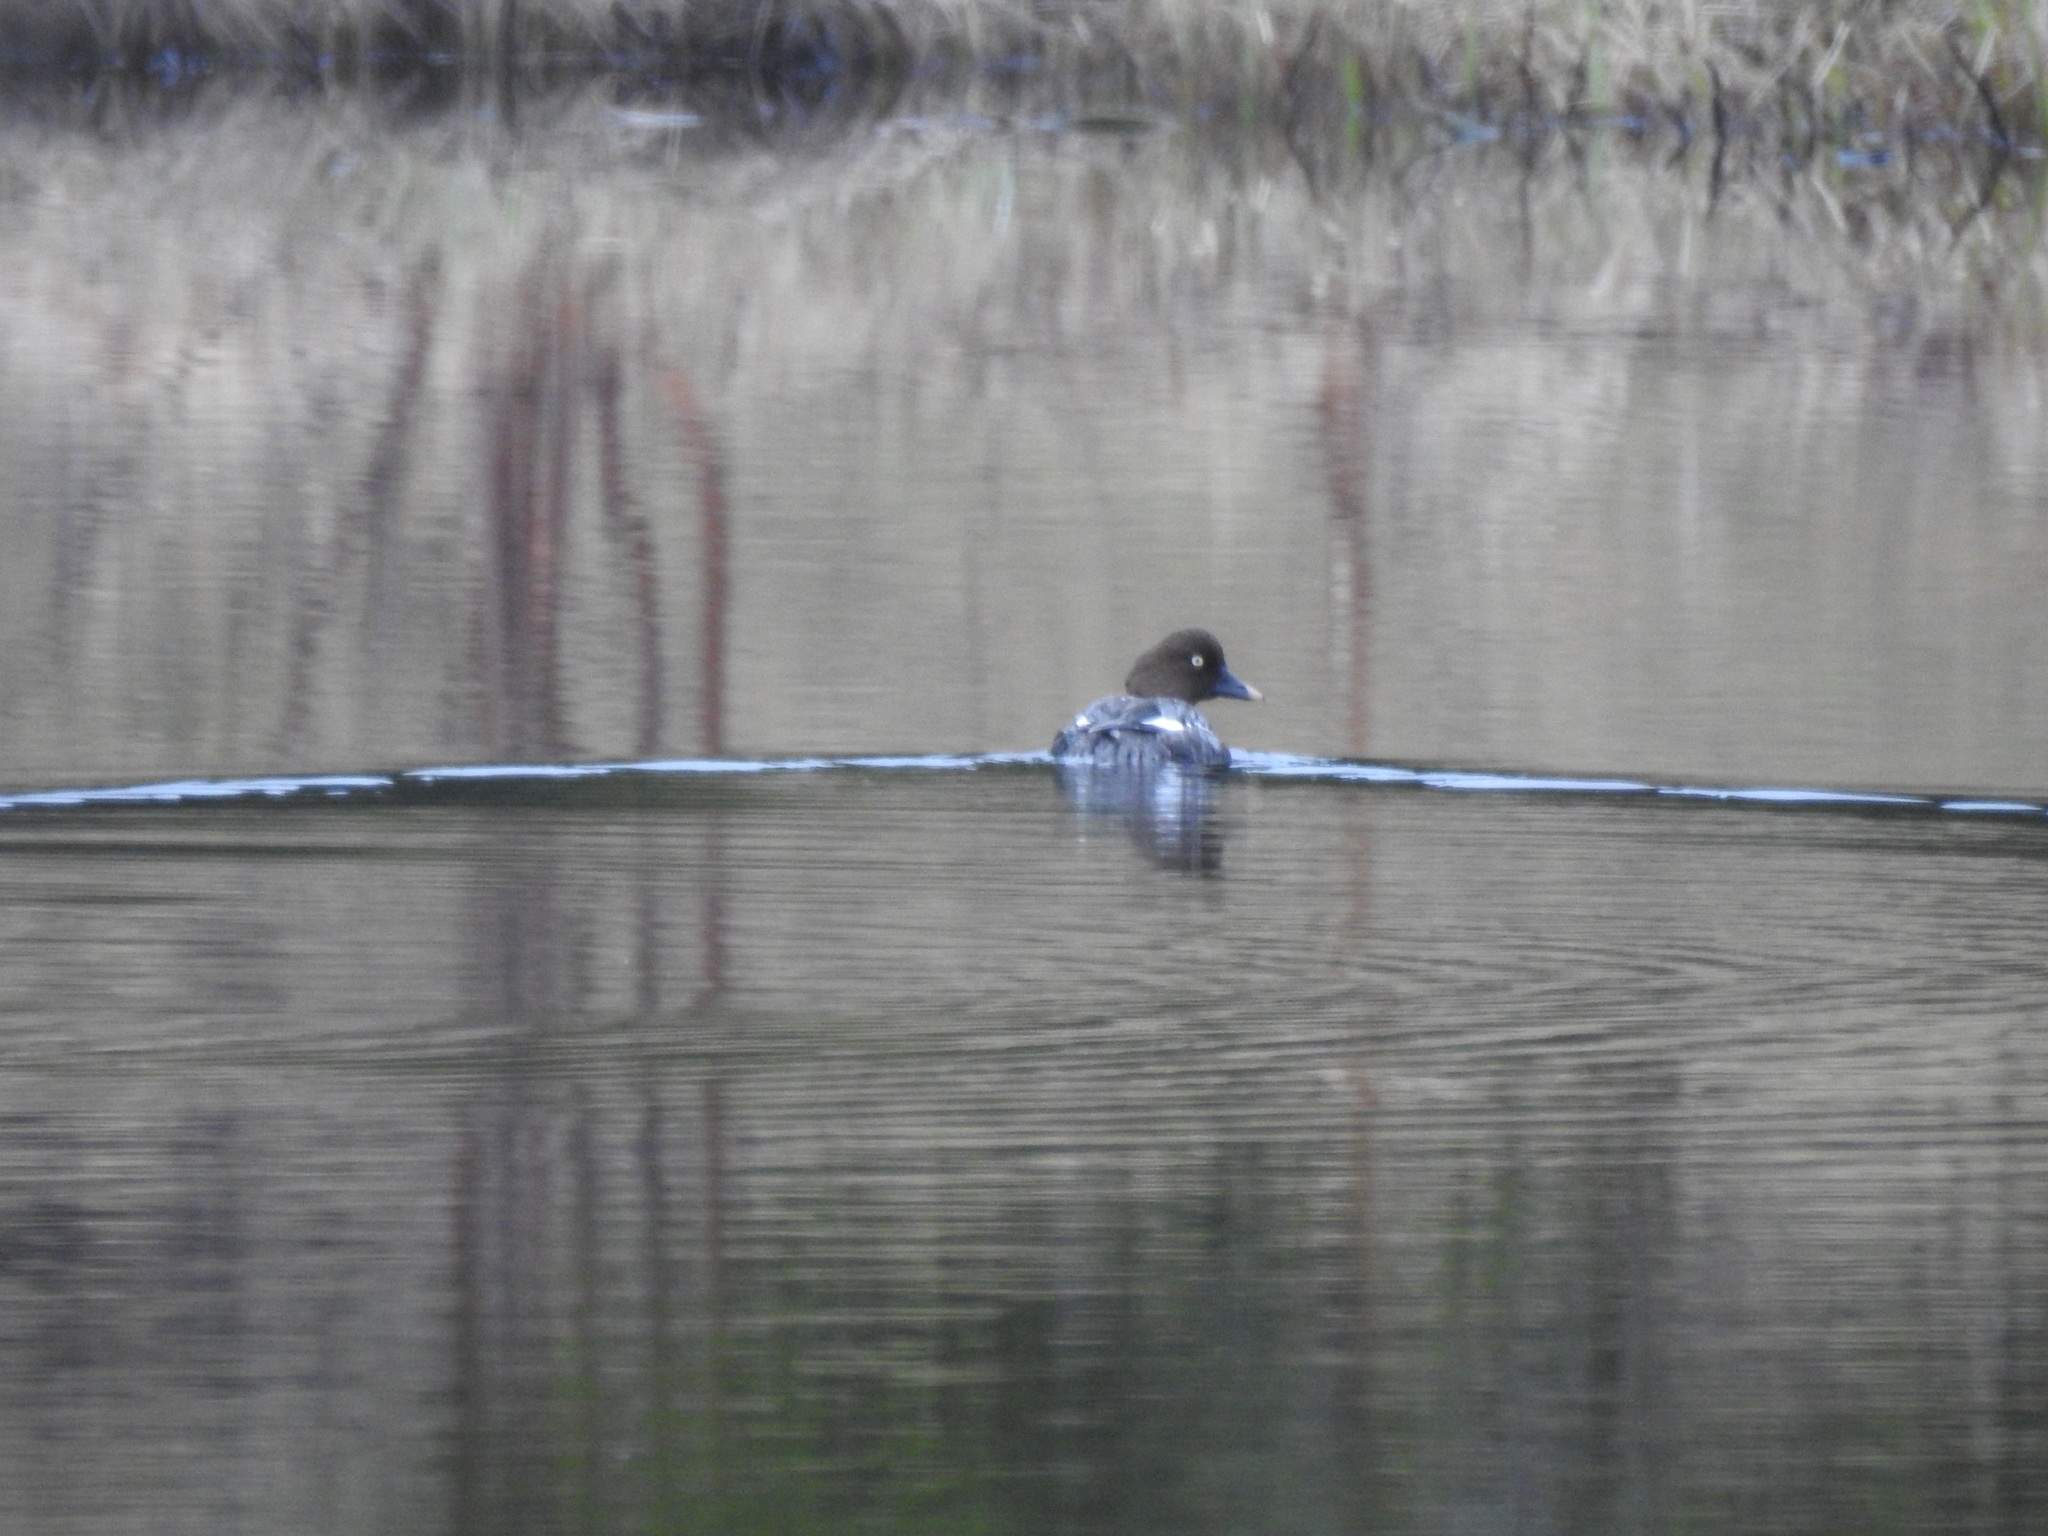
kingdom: Animalia
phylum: Chordata
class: Aves
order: Anseriformes
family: Anatidae
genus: Bucephala
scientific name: Bucephala clangula
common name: Common goldeneye
